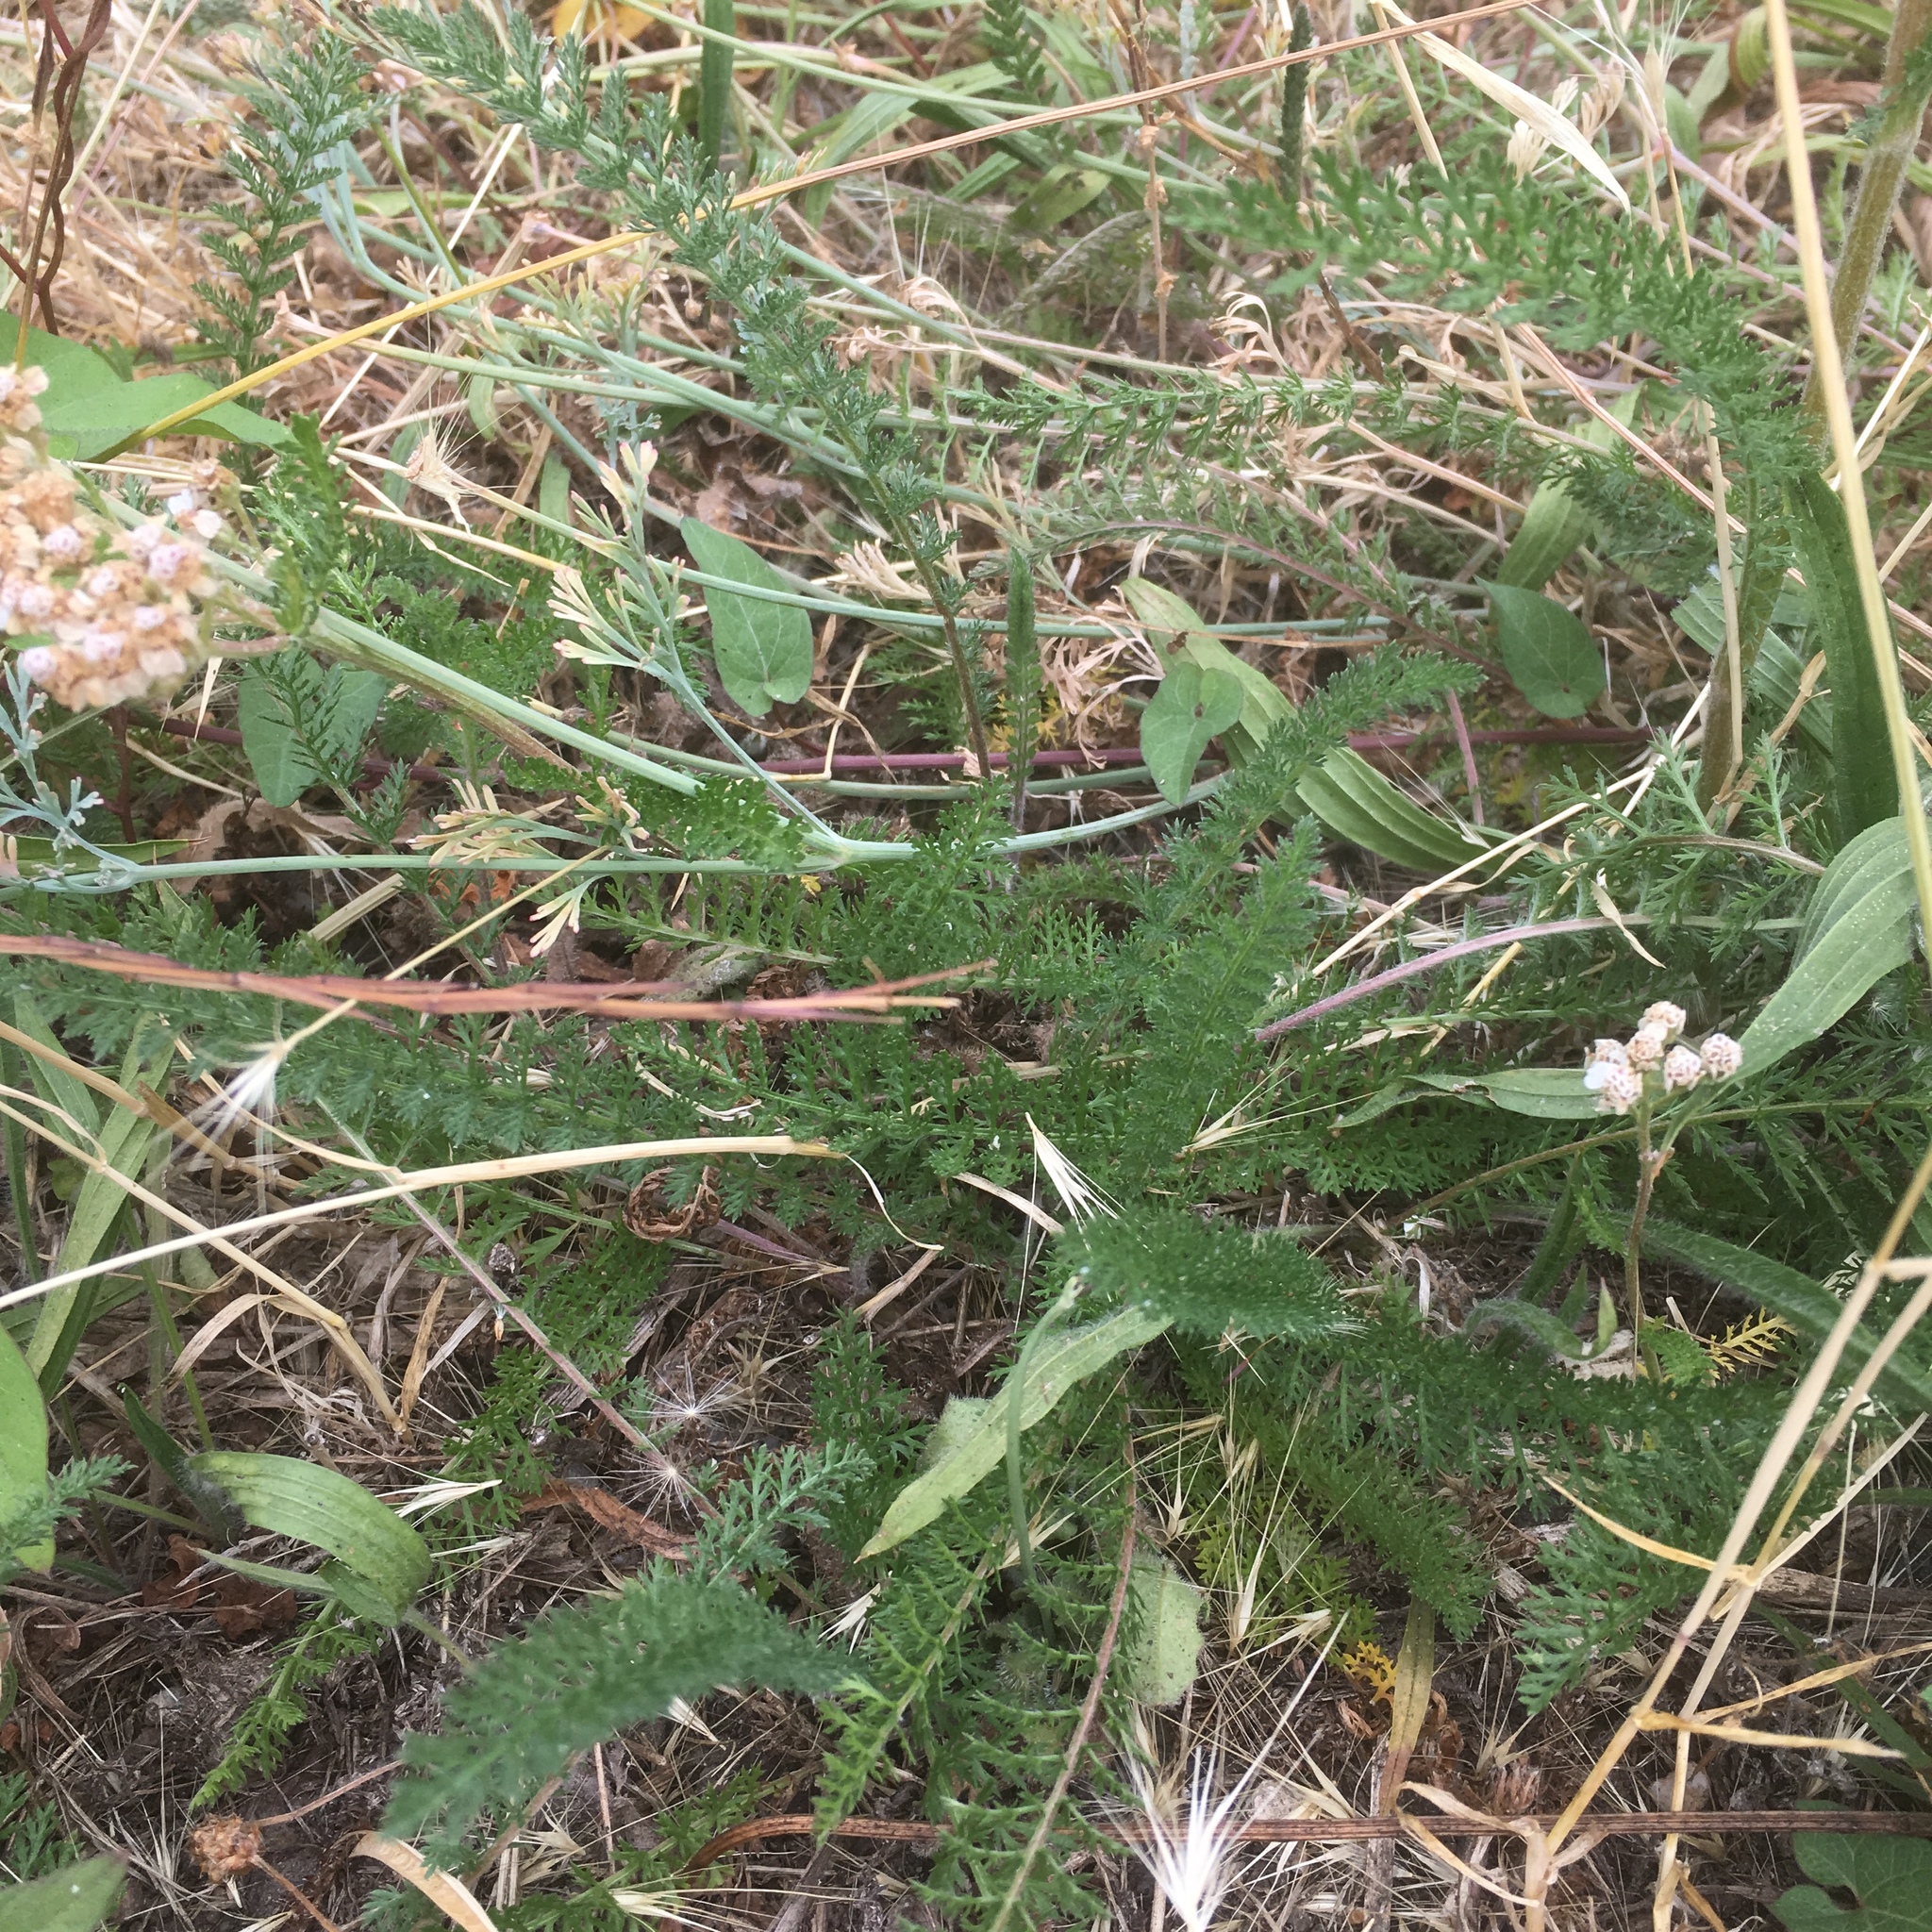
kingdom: Plantae
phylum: Tracheophyta
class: Magnoliopsida
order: Asterales
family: Asteraceae
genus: Achillea
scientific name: Achillea millefolium
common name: Yarrow
